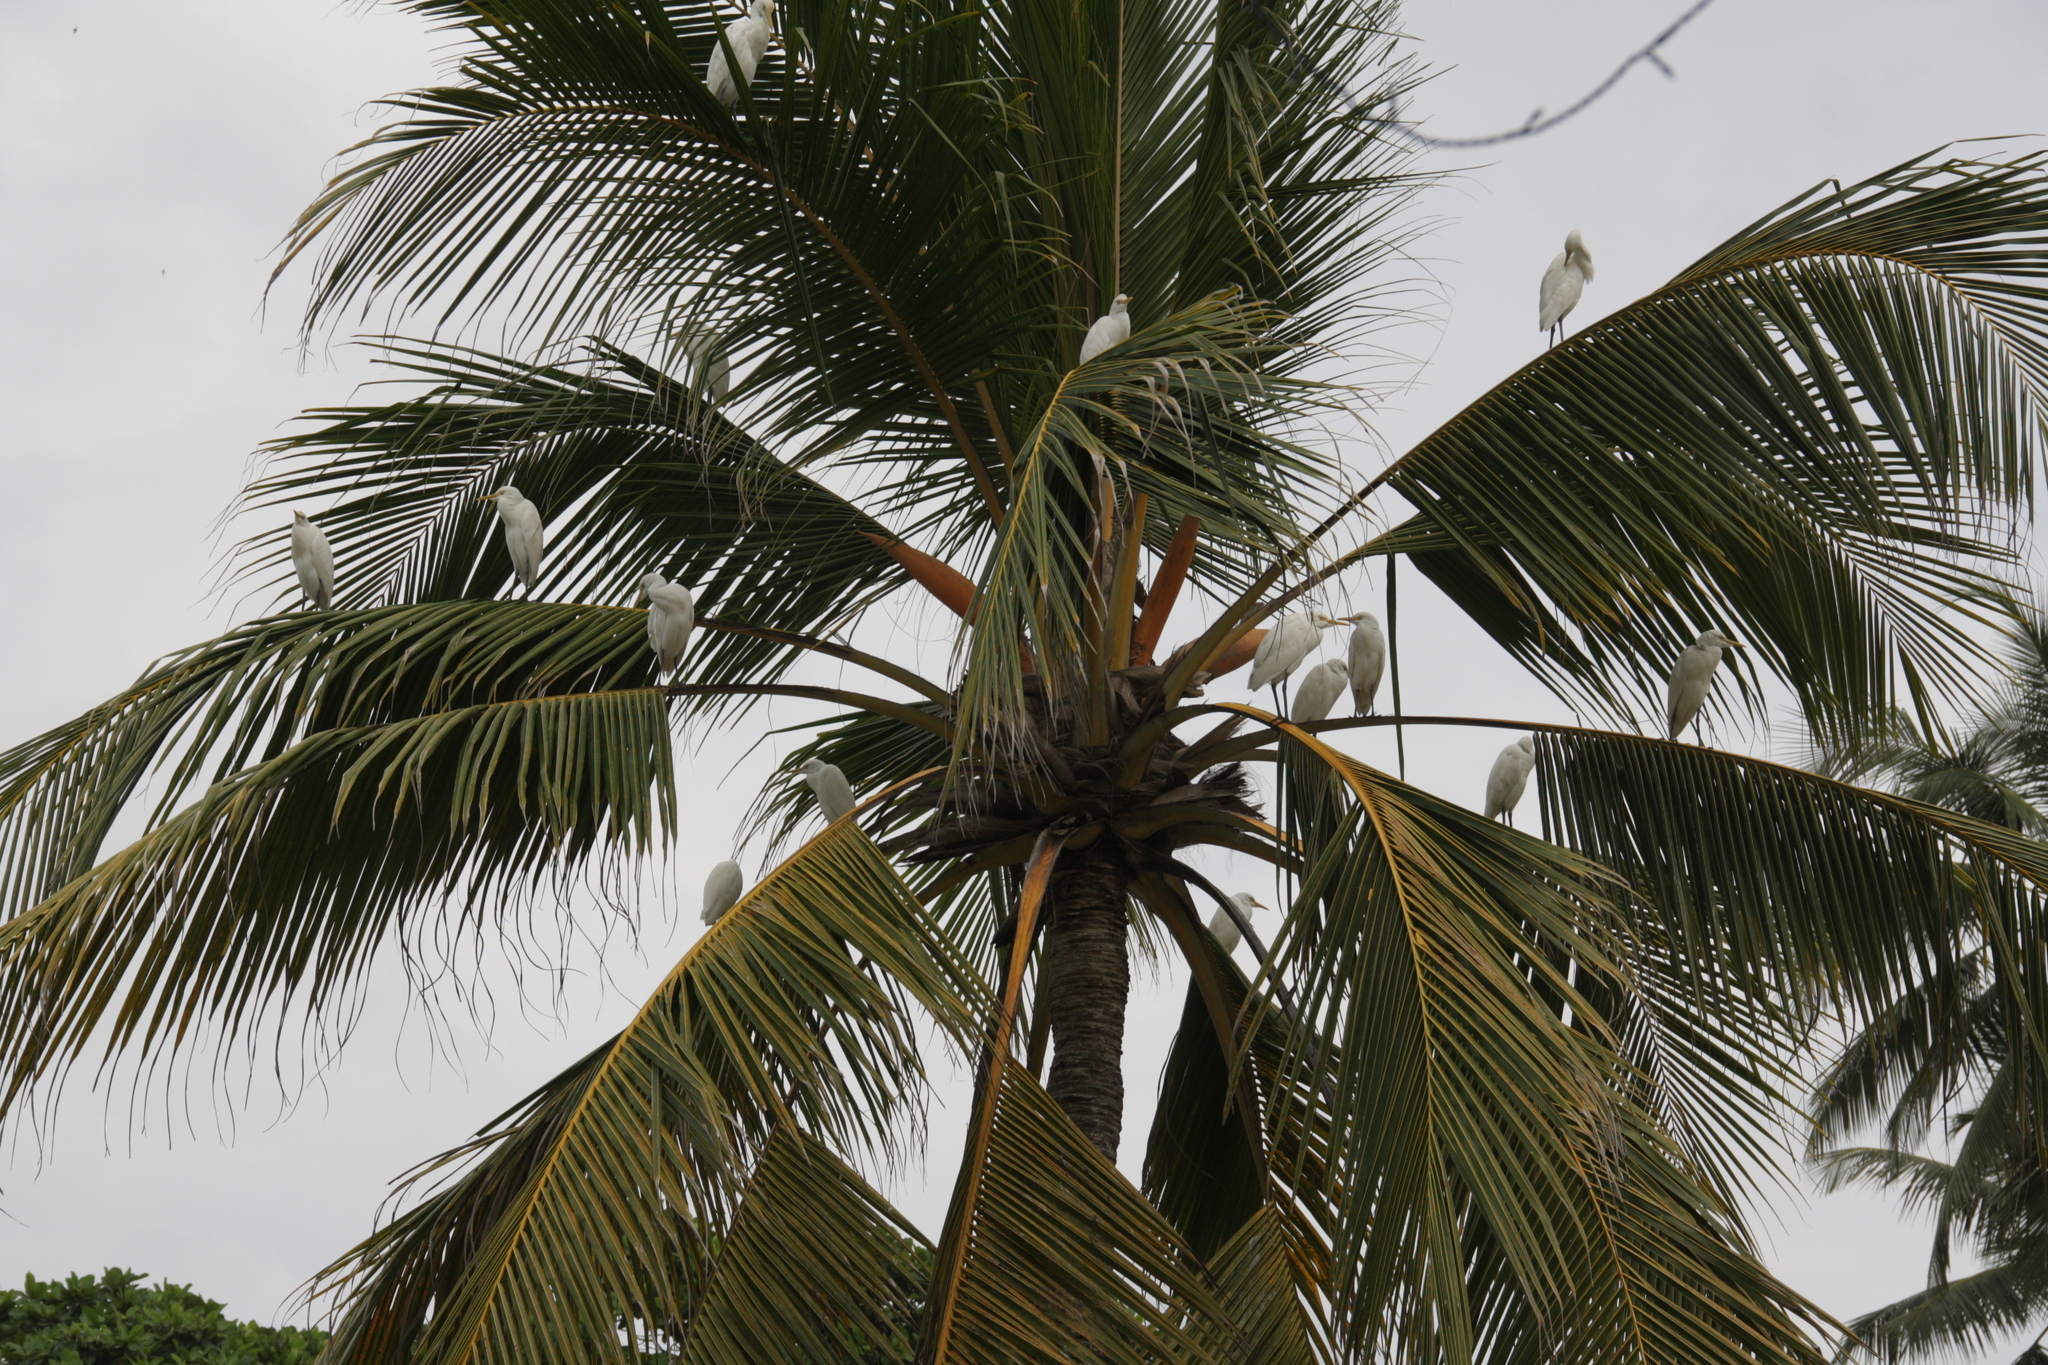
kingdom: Animalia
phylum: Chordata
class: Aves
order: Pelecaniformes
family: Ardeidae
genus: Bubulcus
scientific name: Bubulcus coromandus
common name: Eastern cattle egret
